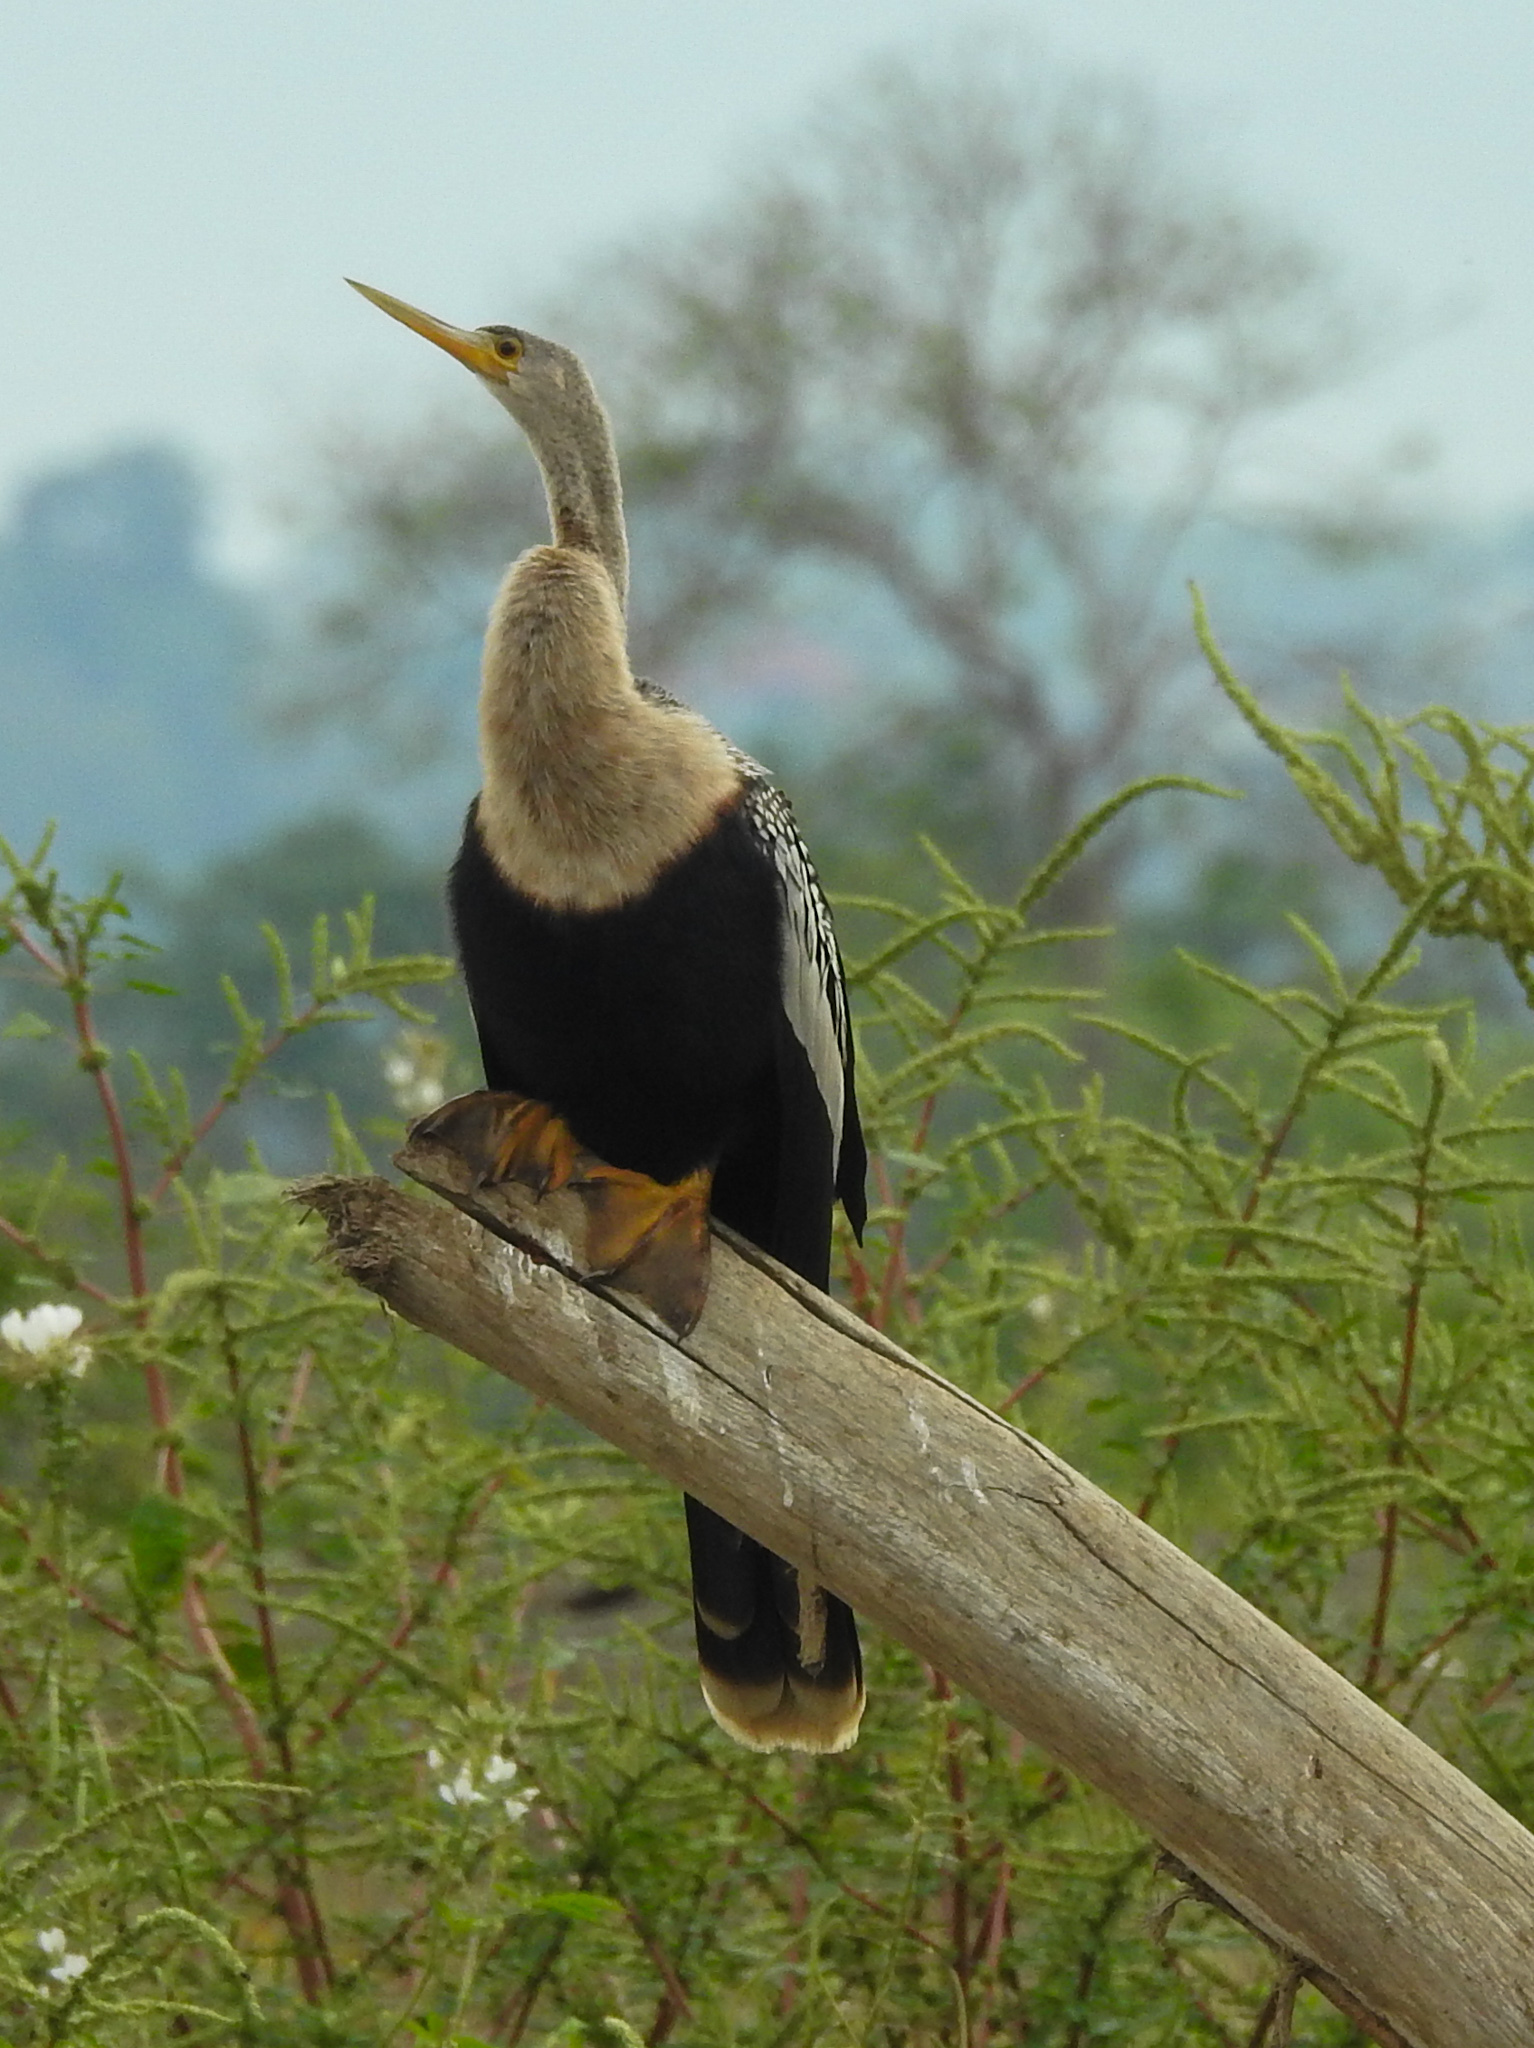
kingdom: Animalia
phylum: Chordata
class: Aves
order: Suliformes
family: Anhingidae
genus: Anhinga
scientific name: Anhinga anhinga
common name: Anhinga
